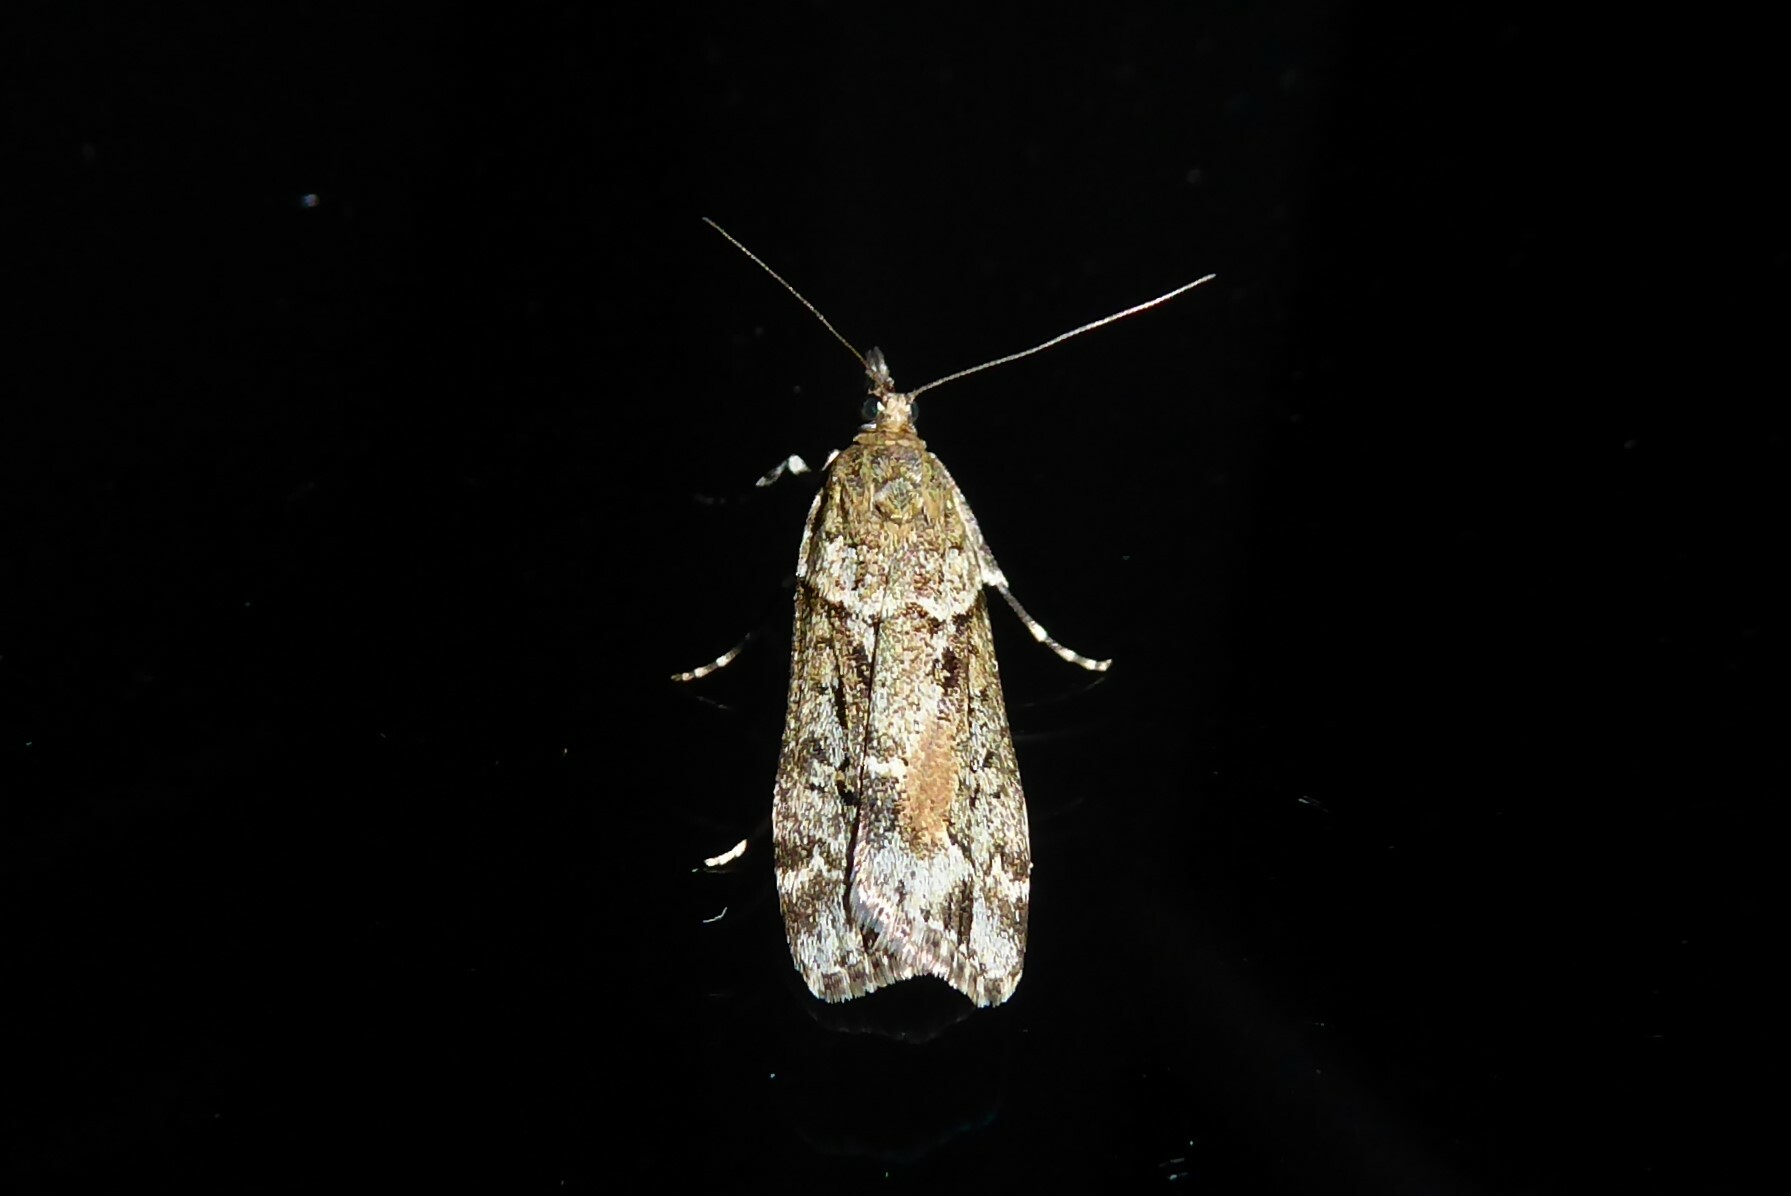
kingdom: Animalia
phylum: Arthropoda
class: Insecta
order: Lepidoptera
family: Crambidae
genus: Eudonia
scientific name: Eudonia submarginalis
